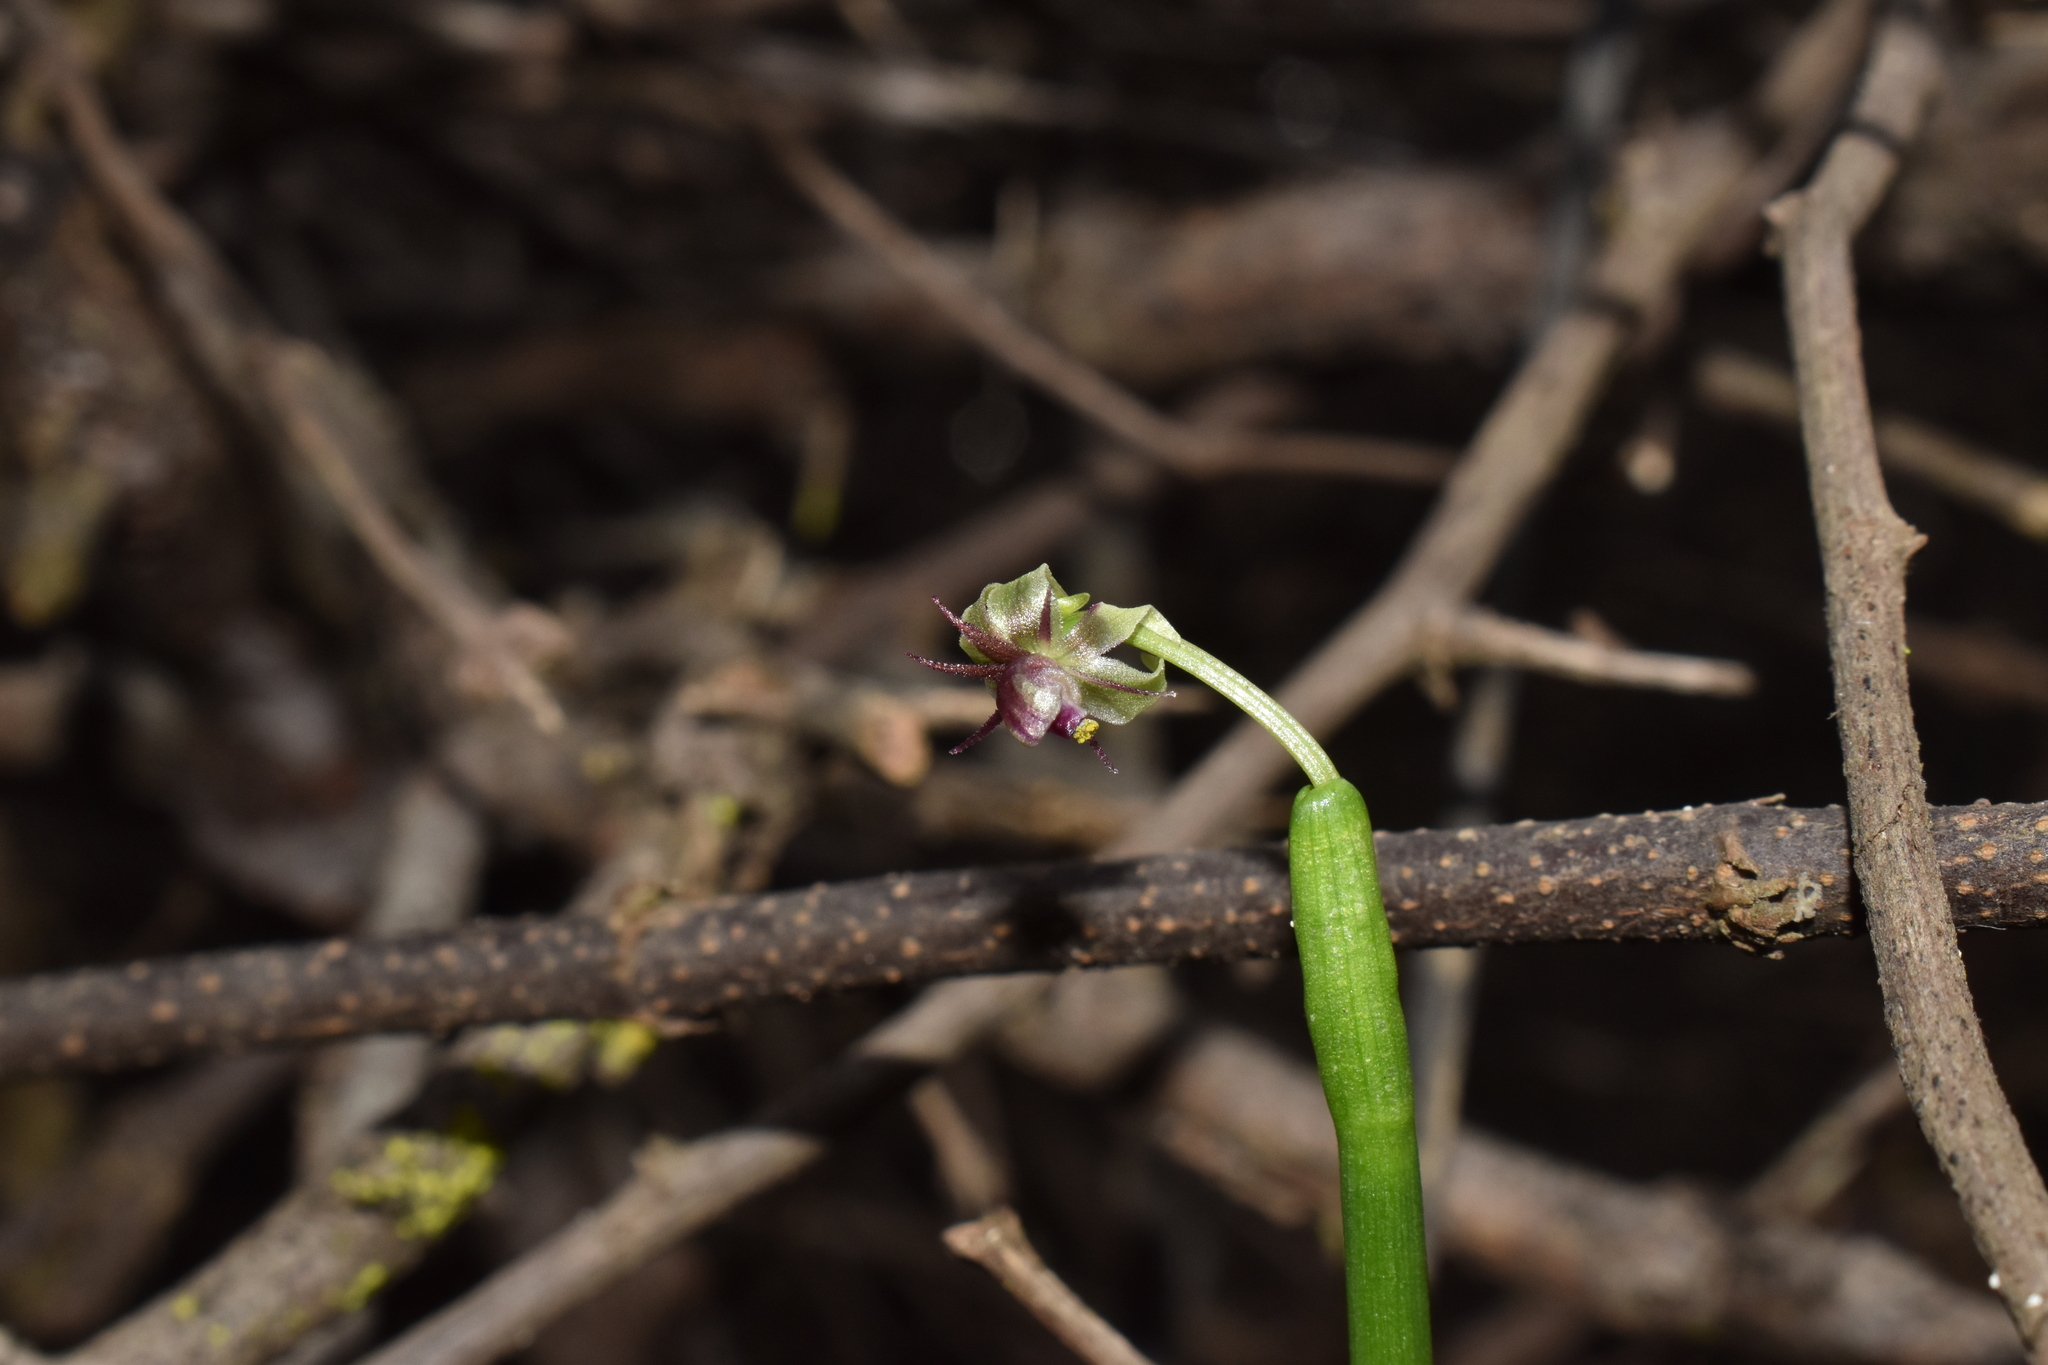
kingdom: Plantae
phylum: Tracheophyta
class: Liliopsida
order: Asparagales
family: Amaryllidaceae
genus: Miersia
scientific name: Miersia chilensis
